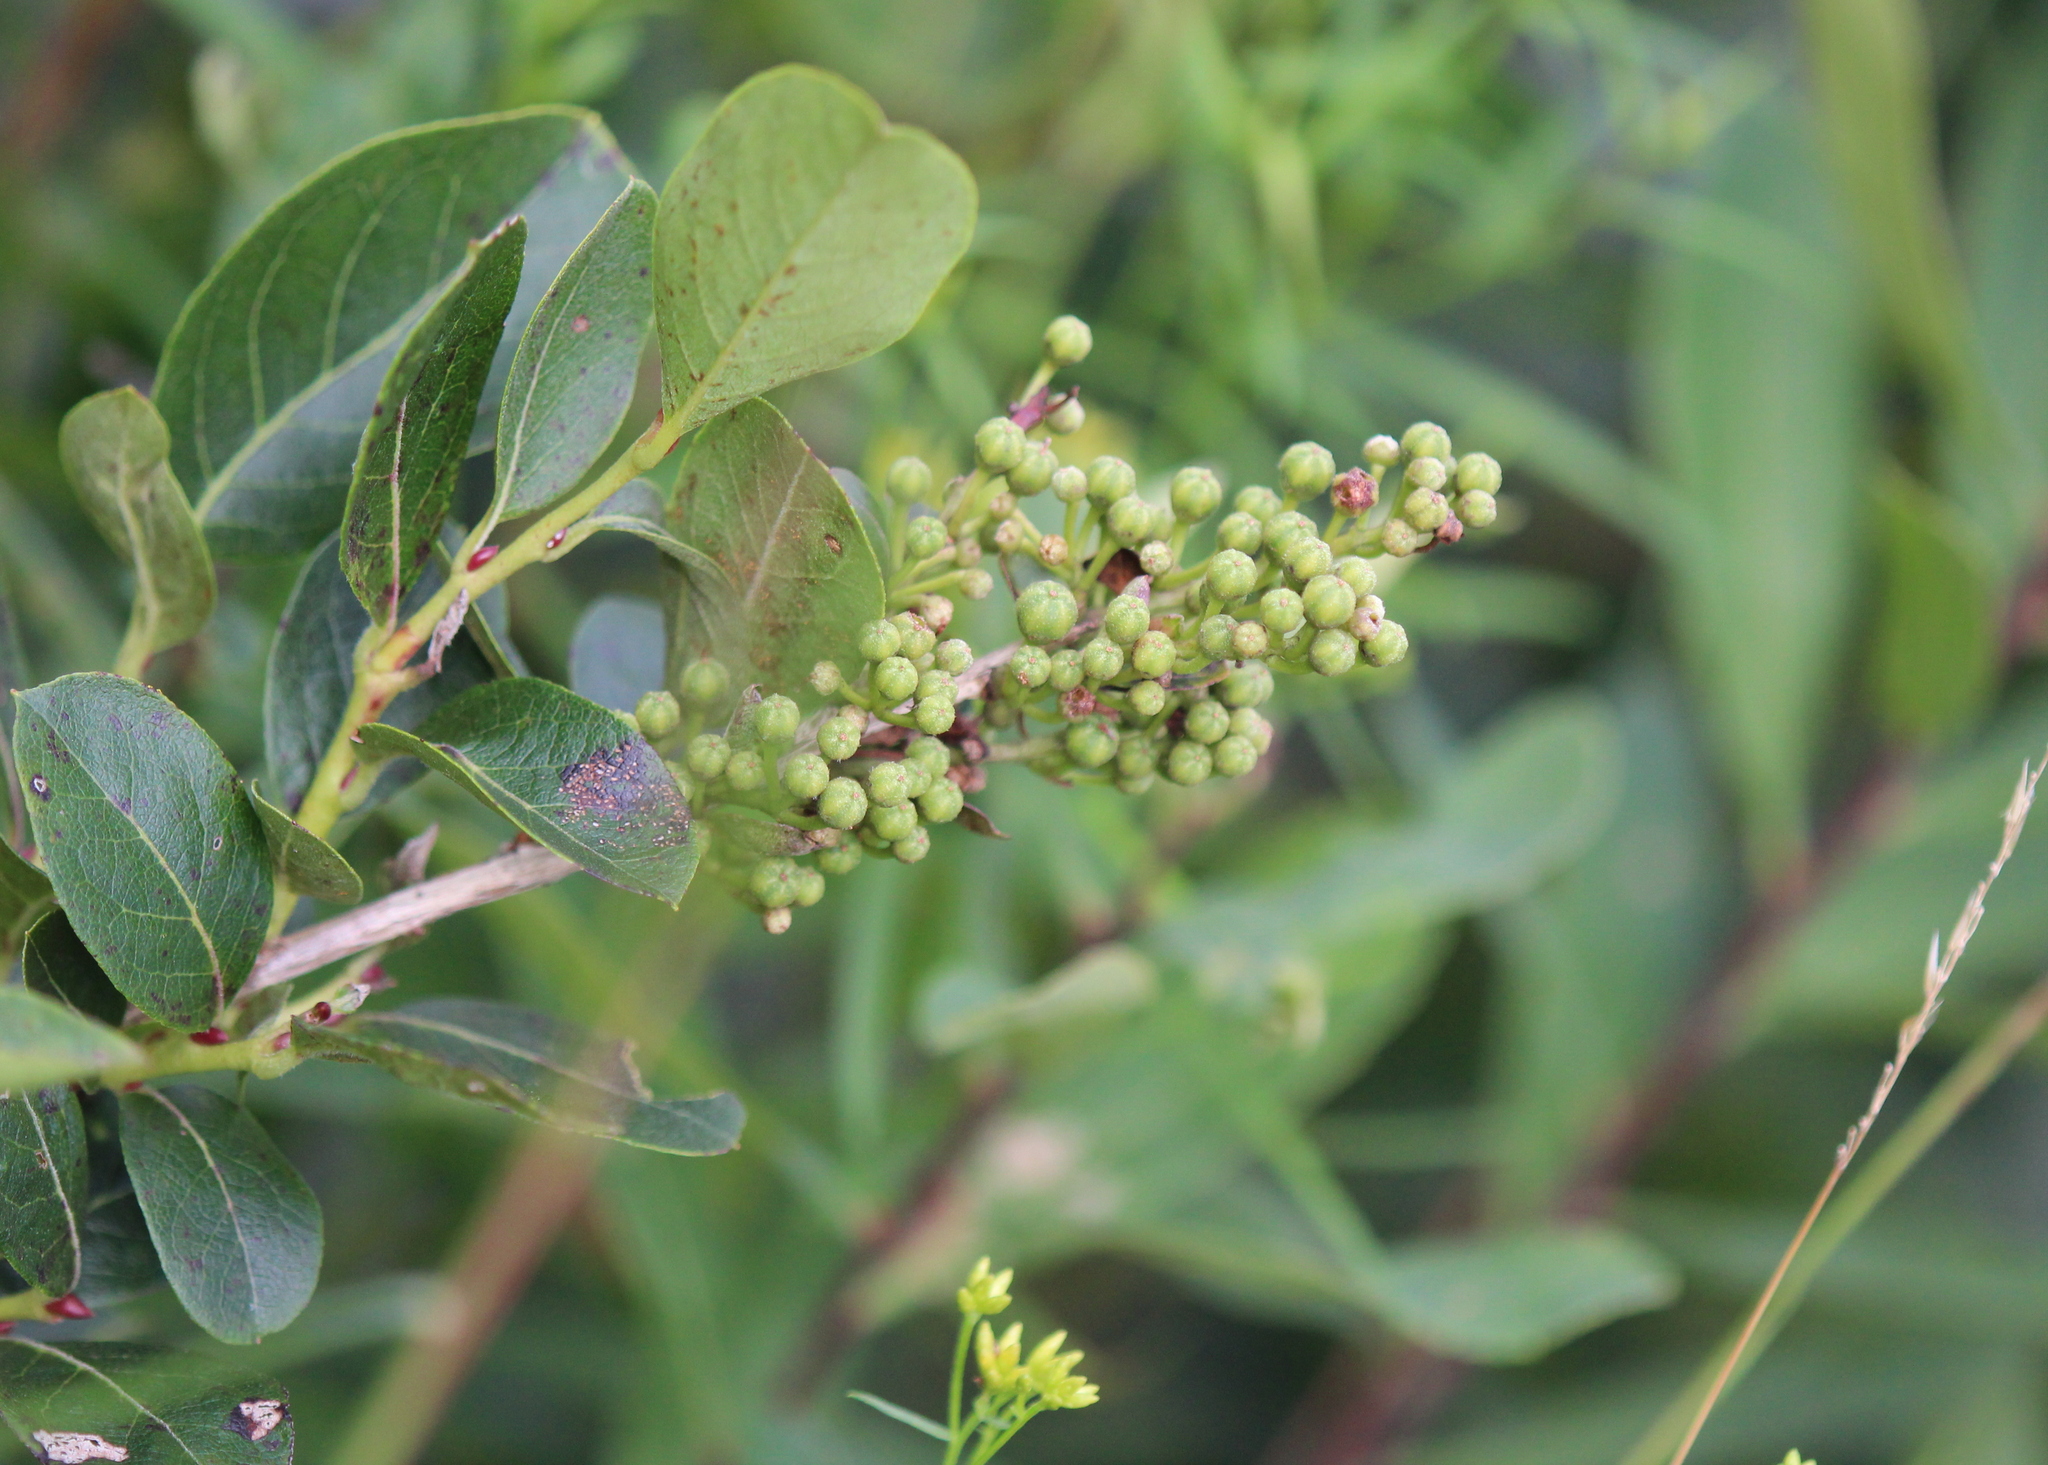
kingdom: Plantae
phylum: Tracheophyta
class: Magnoliopsida
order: Ericales
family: Ericaceae
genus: Lyonia
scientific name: Lyonia ligustrina
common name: Maleberry
